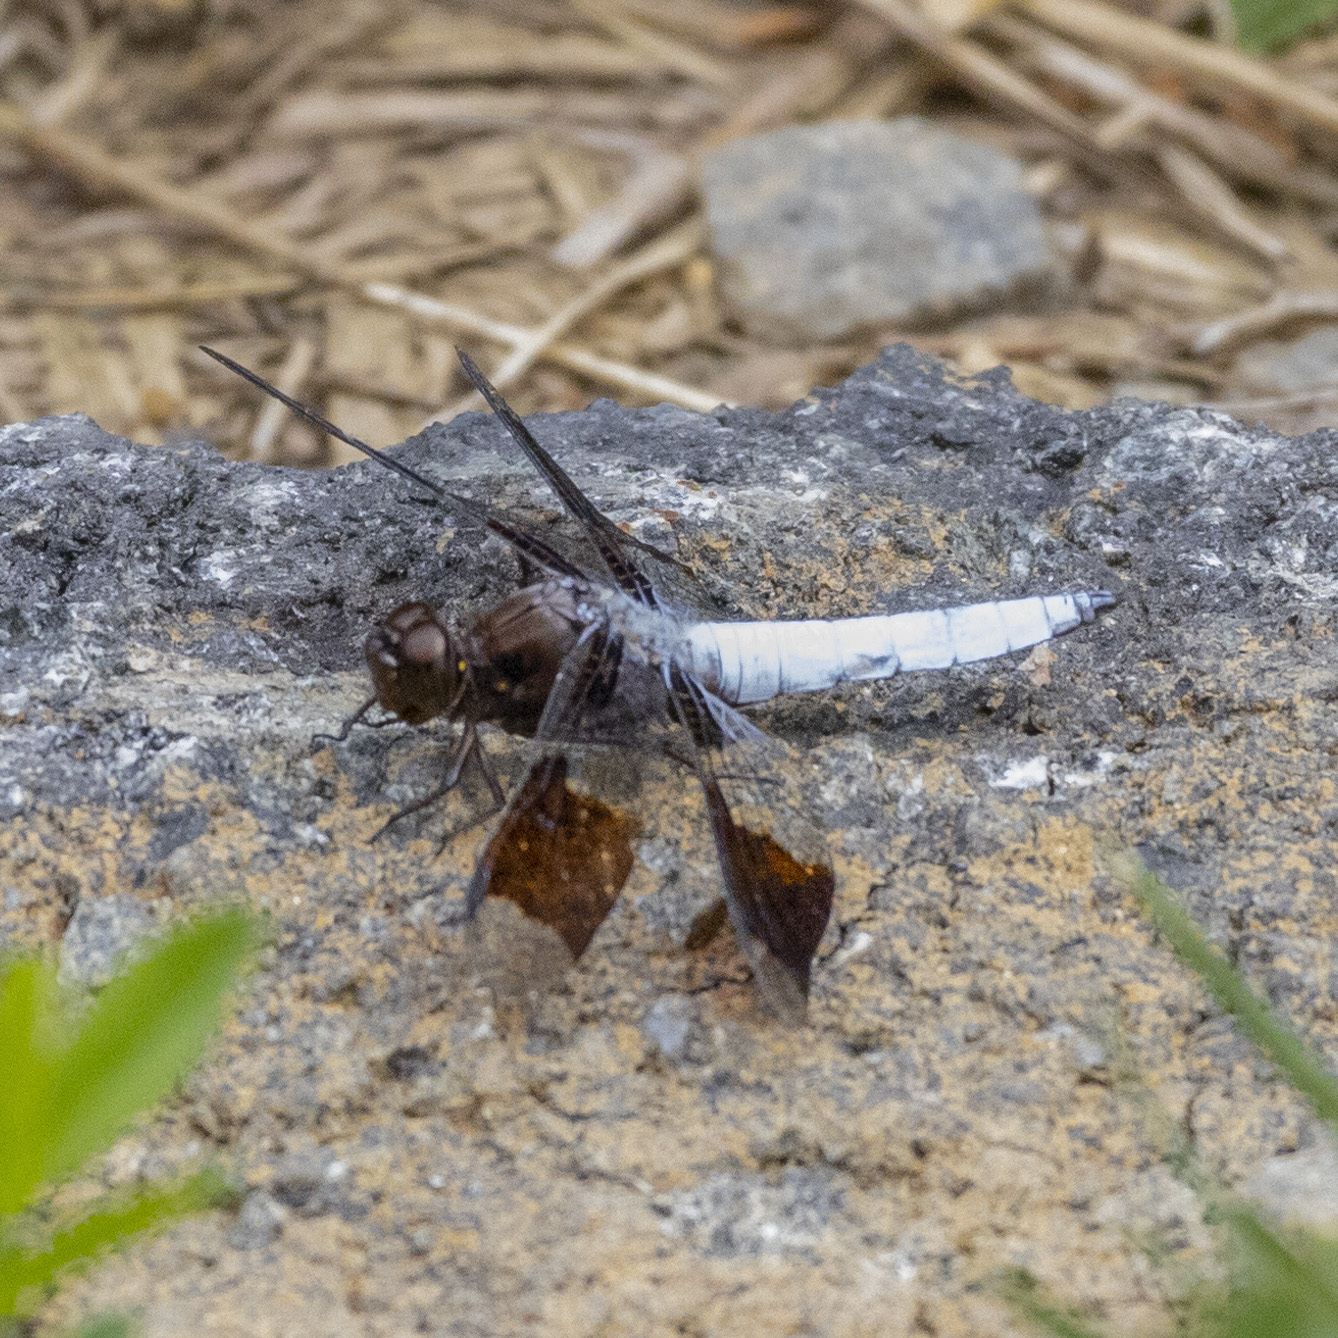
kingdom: Animalia
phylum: Arthropoda
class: Insecta
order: Odonata
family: Libellulidae
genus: Plathemis
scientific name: Plathemis lydia
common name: Common whitetail
